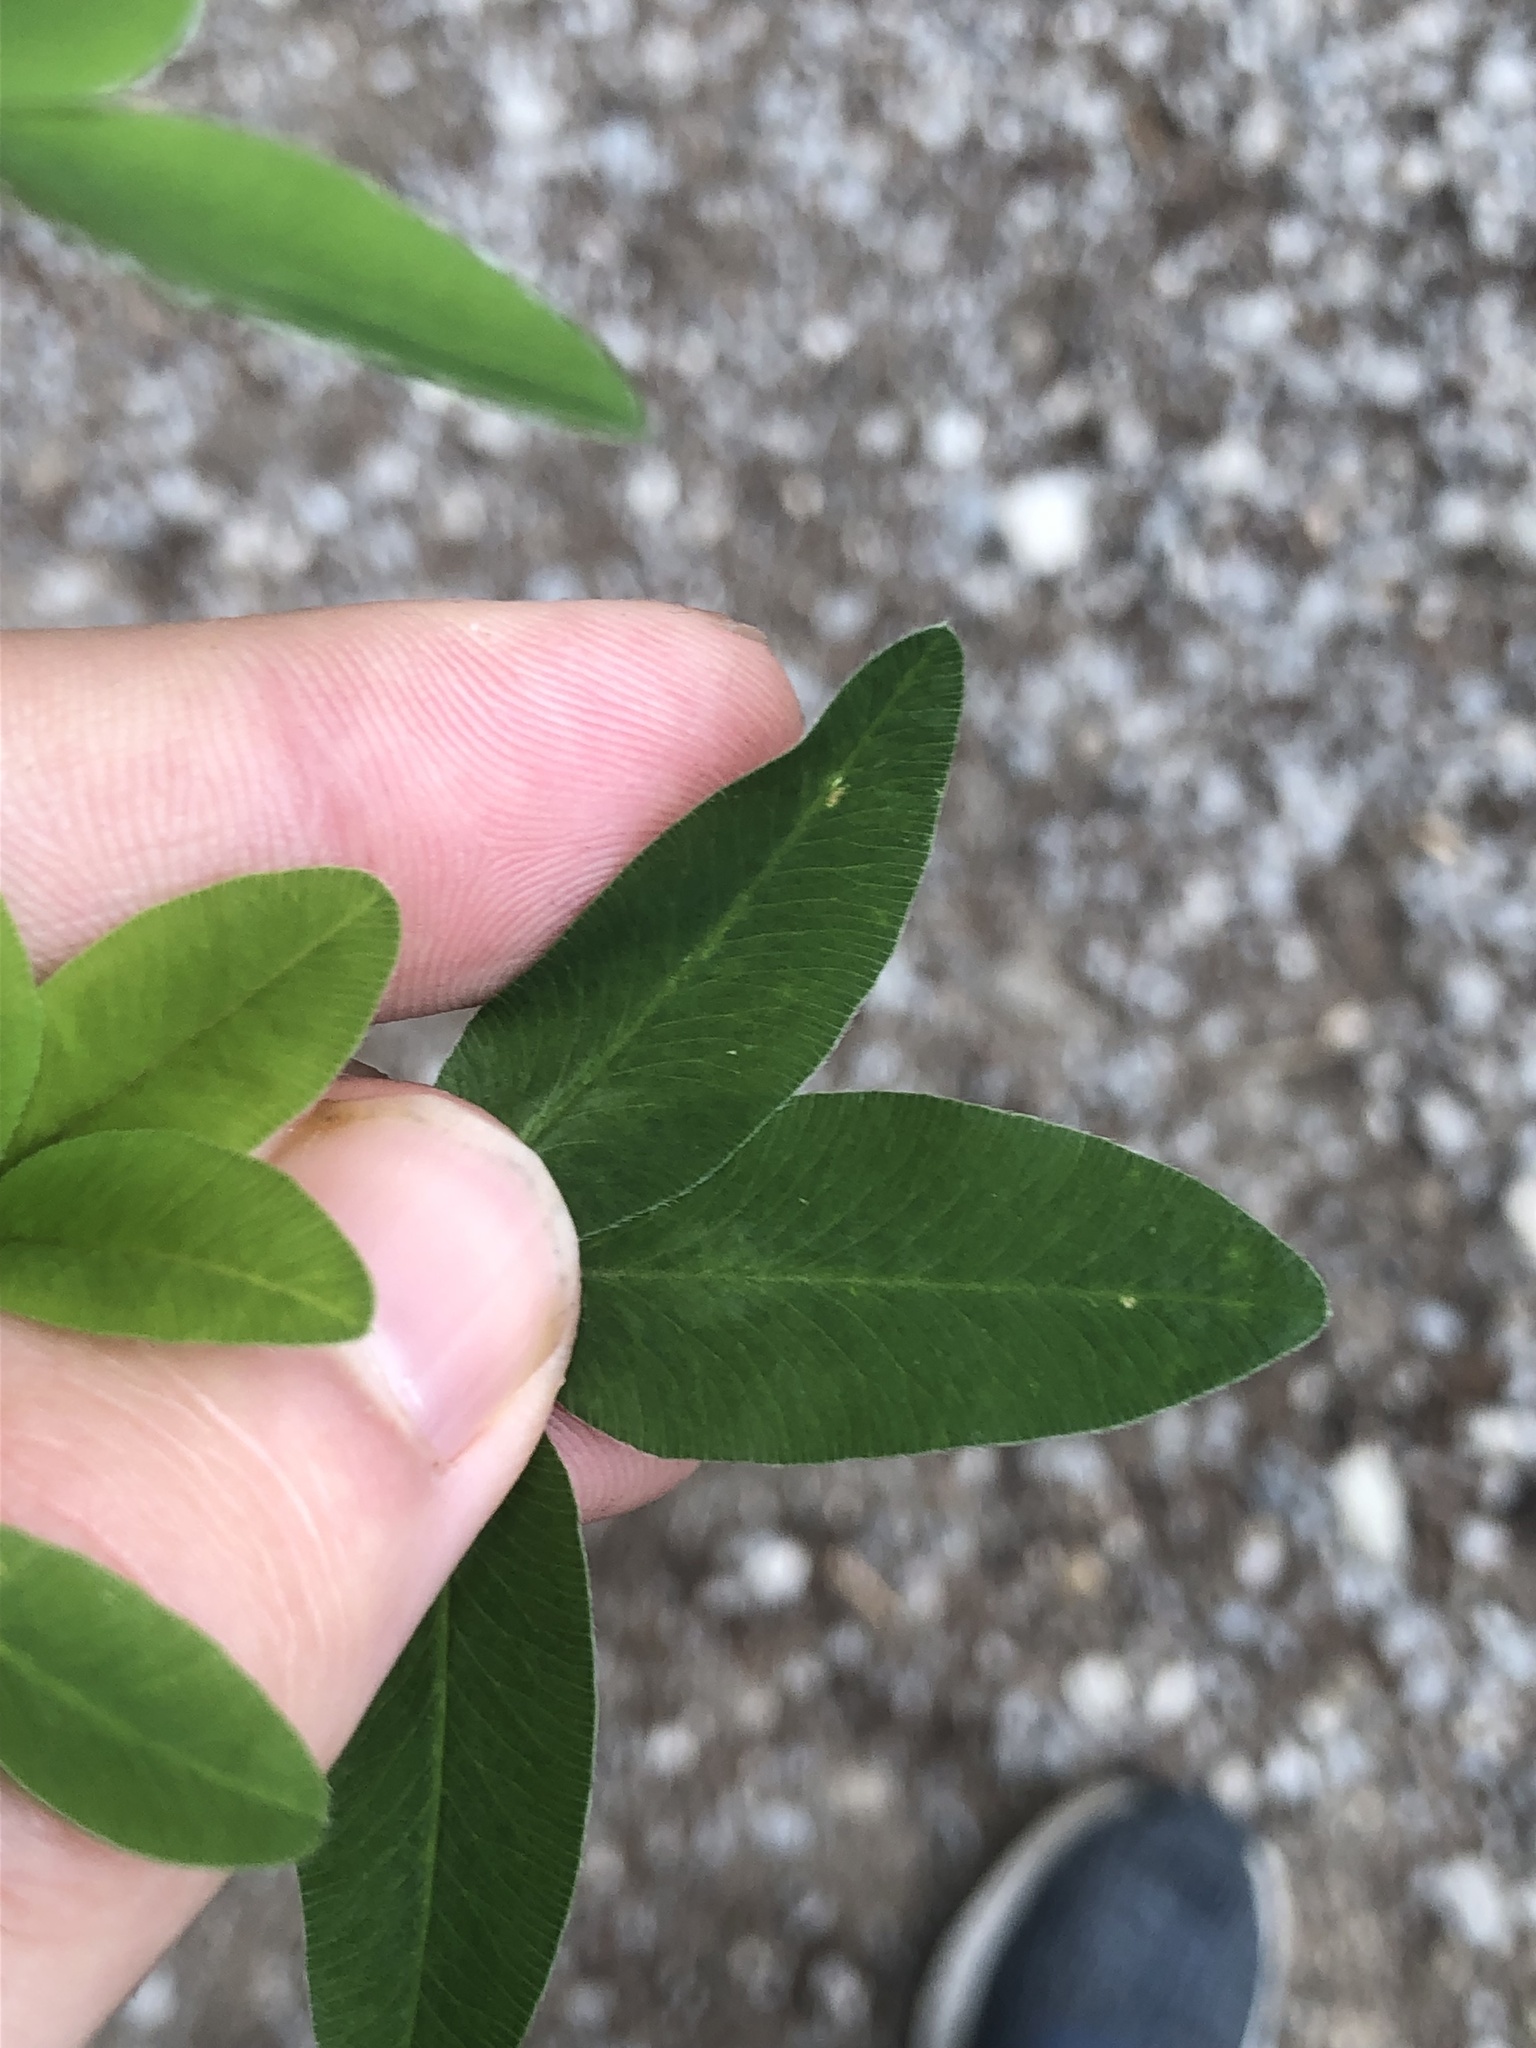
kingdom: Plantae
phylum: Tracheophyta
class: Magnoliopsida
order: Fabales
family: Fabaceae
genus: Trifolium
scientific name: Trifolium medium
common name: Zigzag clover
